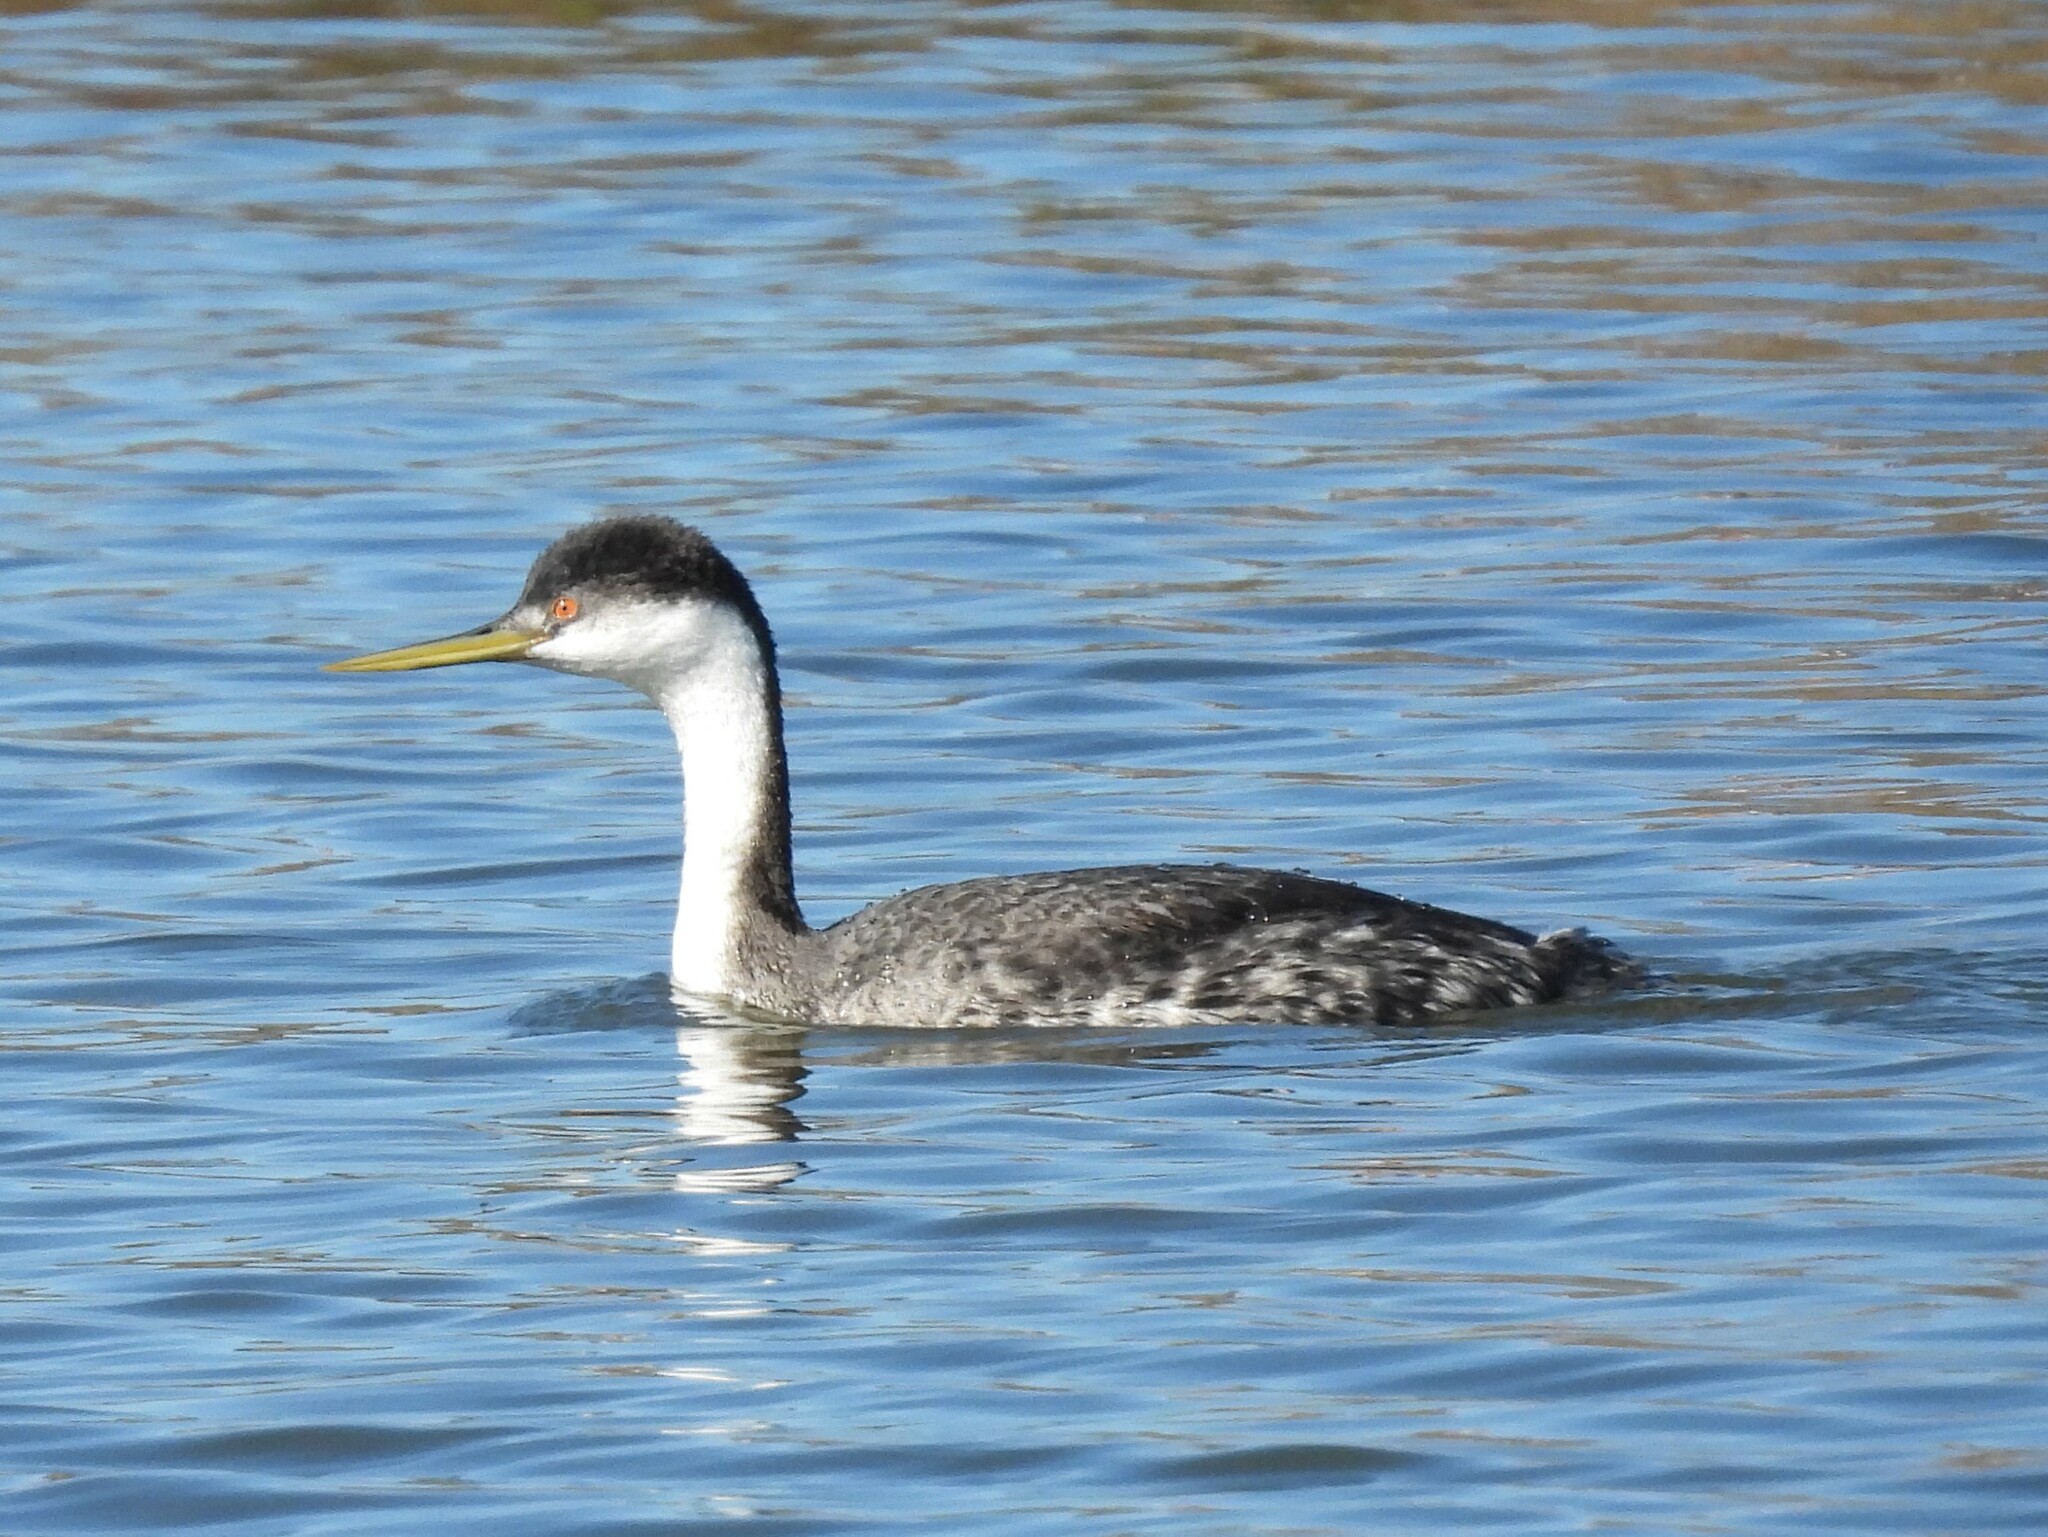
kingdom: Animalia
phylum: Chordata
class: Aves
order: Podicipediformes
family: Podicipedidae
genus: Aechmophorus
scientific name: Aechmophorus clarkii
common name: Clark's grebe
